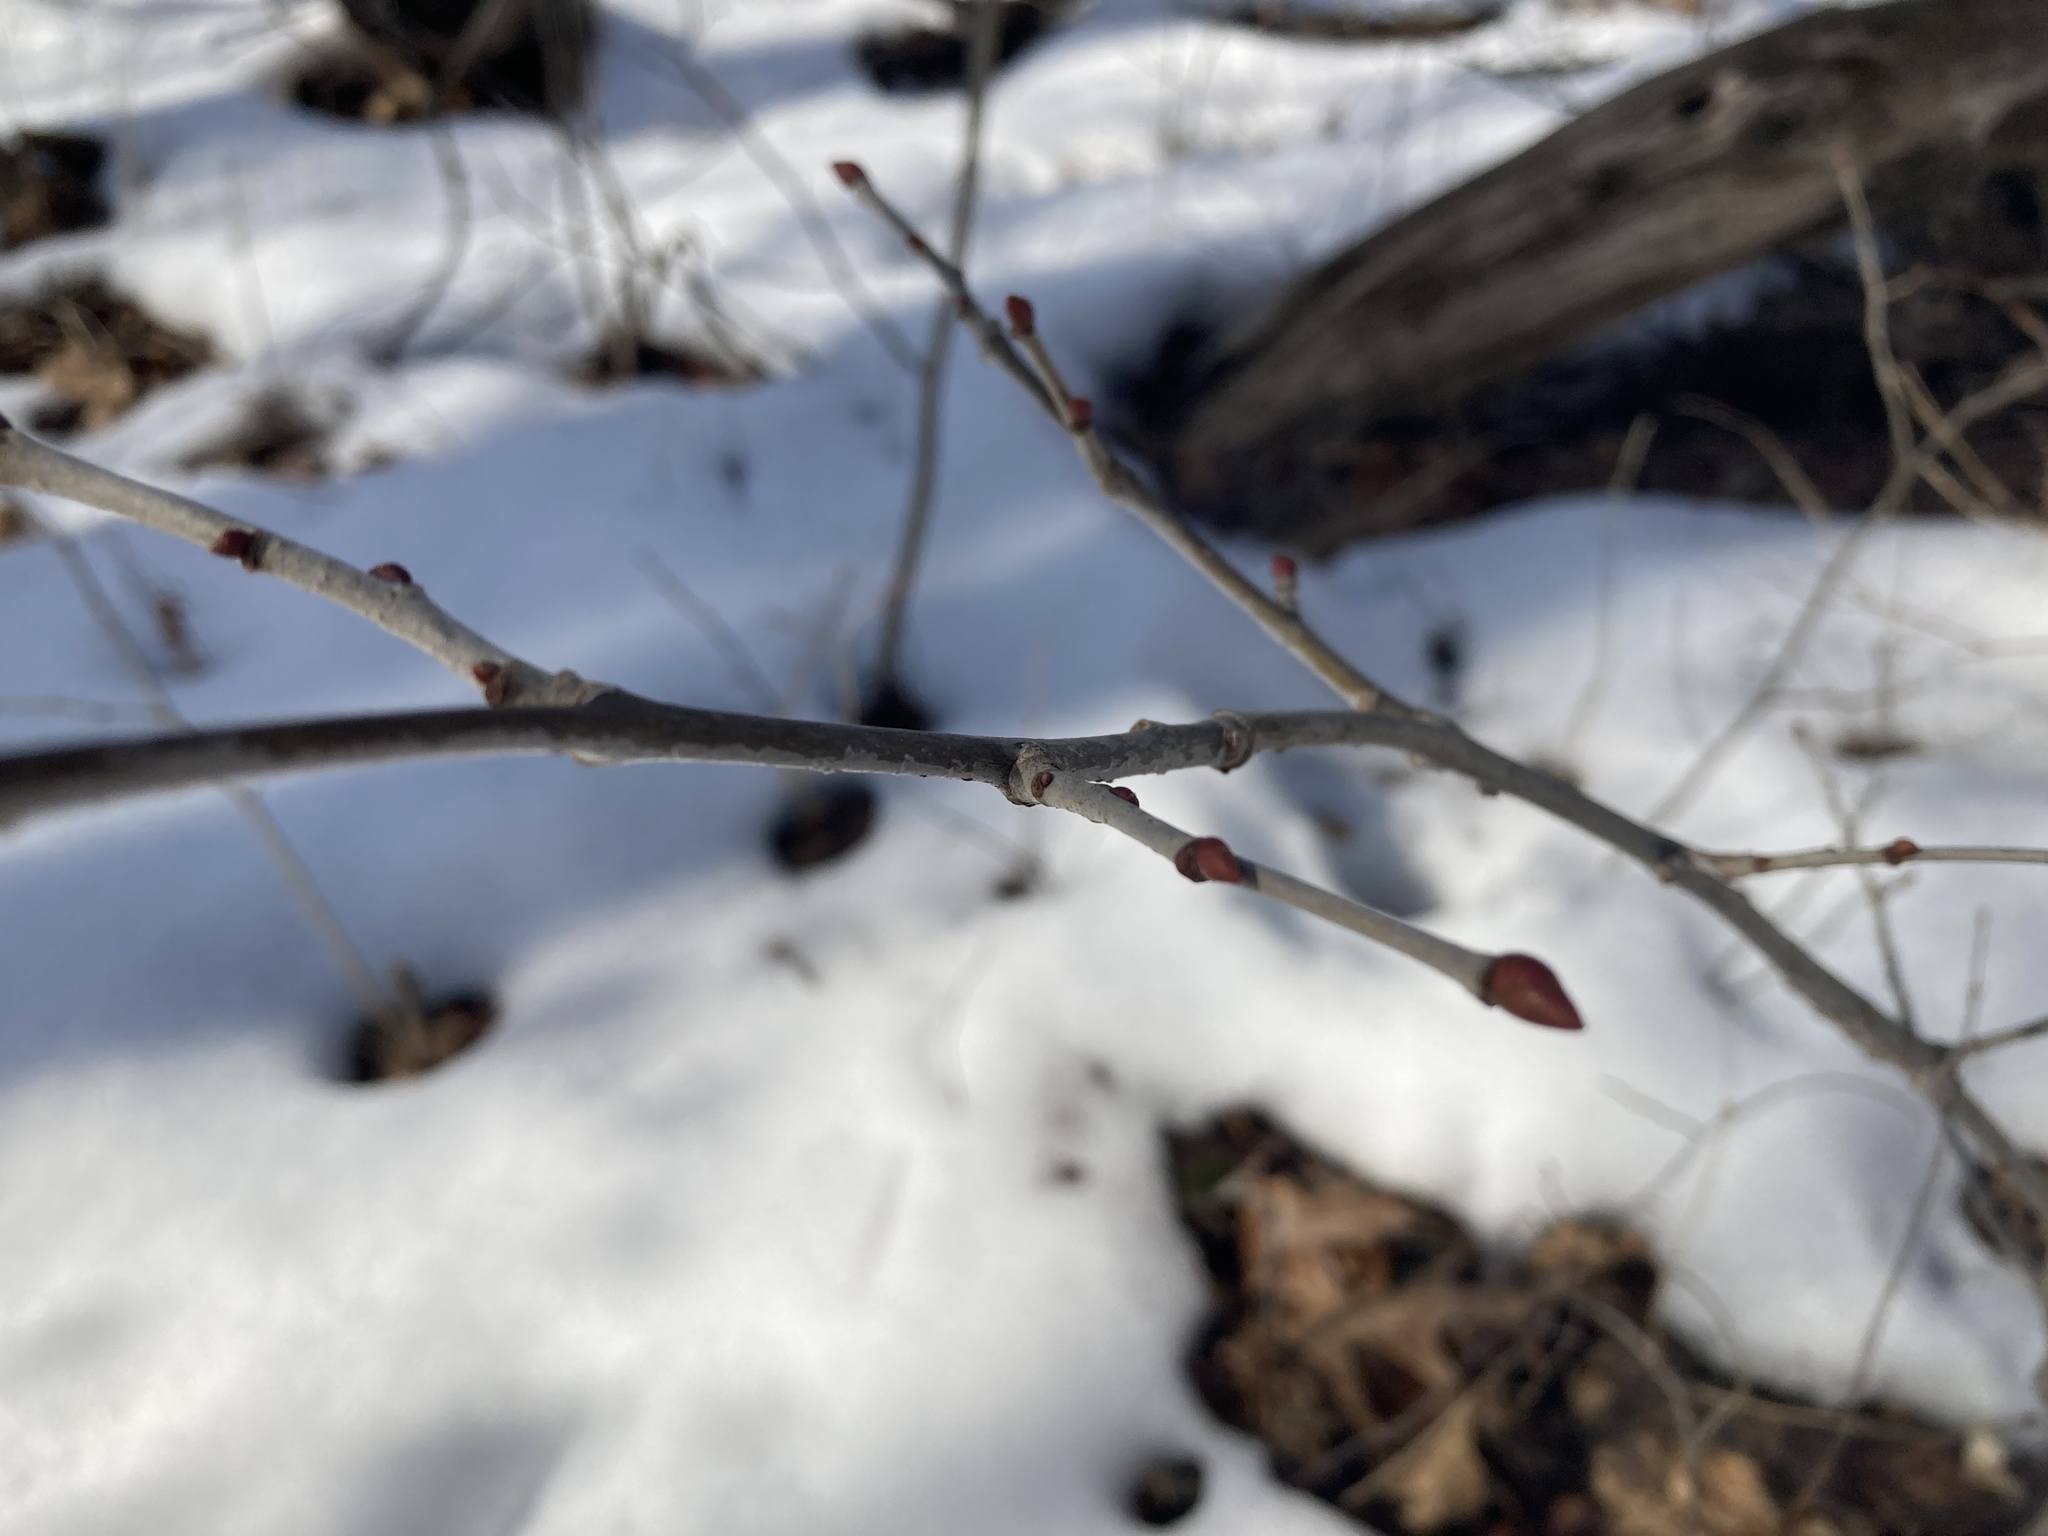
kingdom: Plantae
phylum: Tracheophyta
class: Magnoliopsida
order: Malvales
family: Malvaceae
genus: Tilia
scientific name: Tilia americana
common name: Basswood
